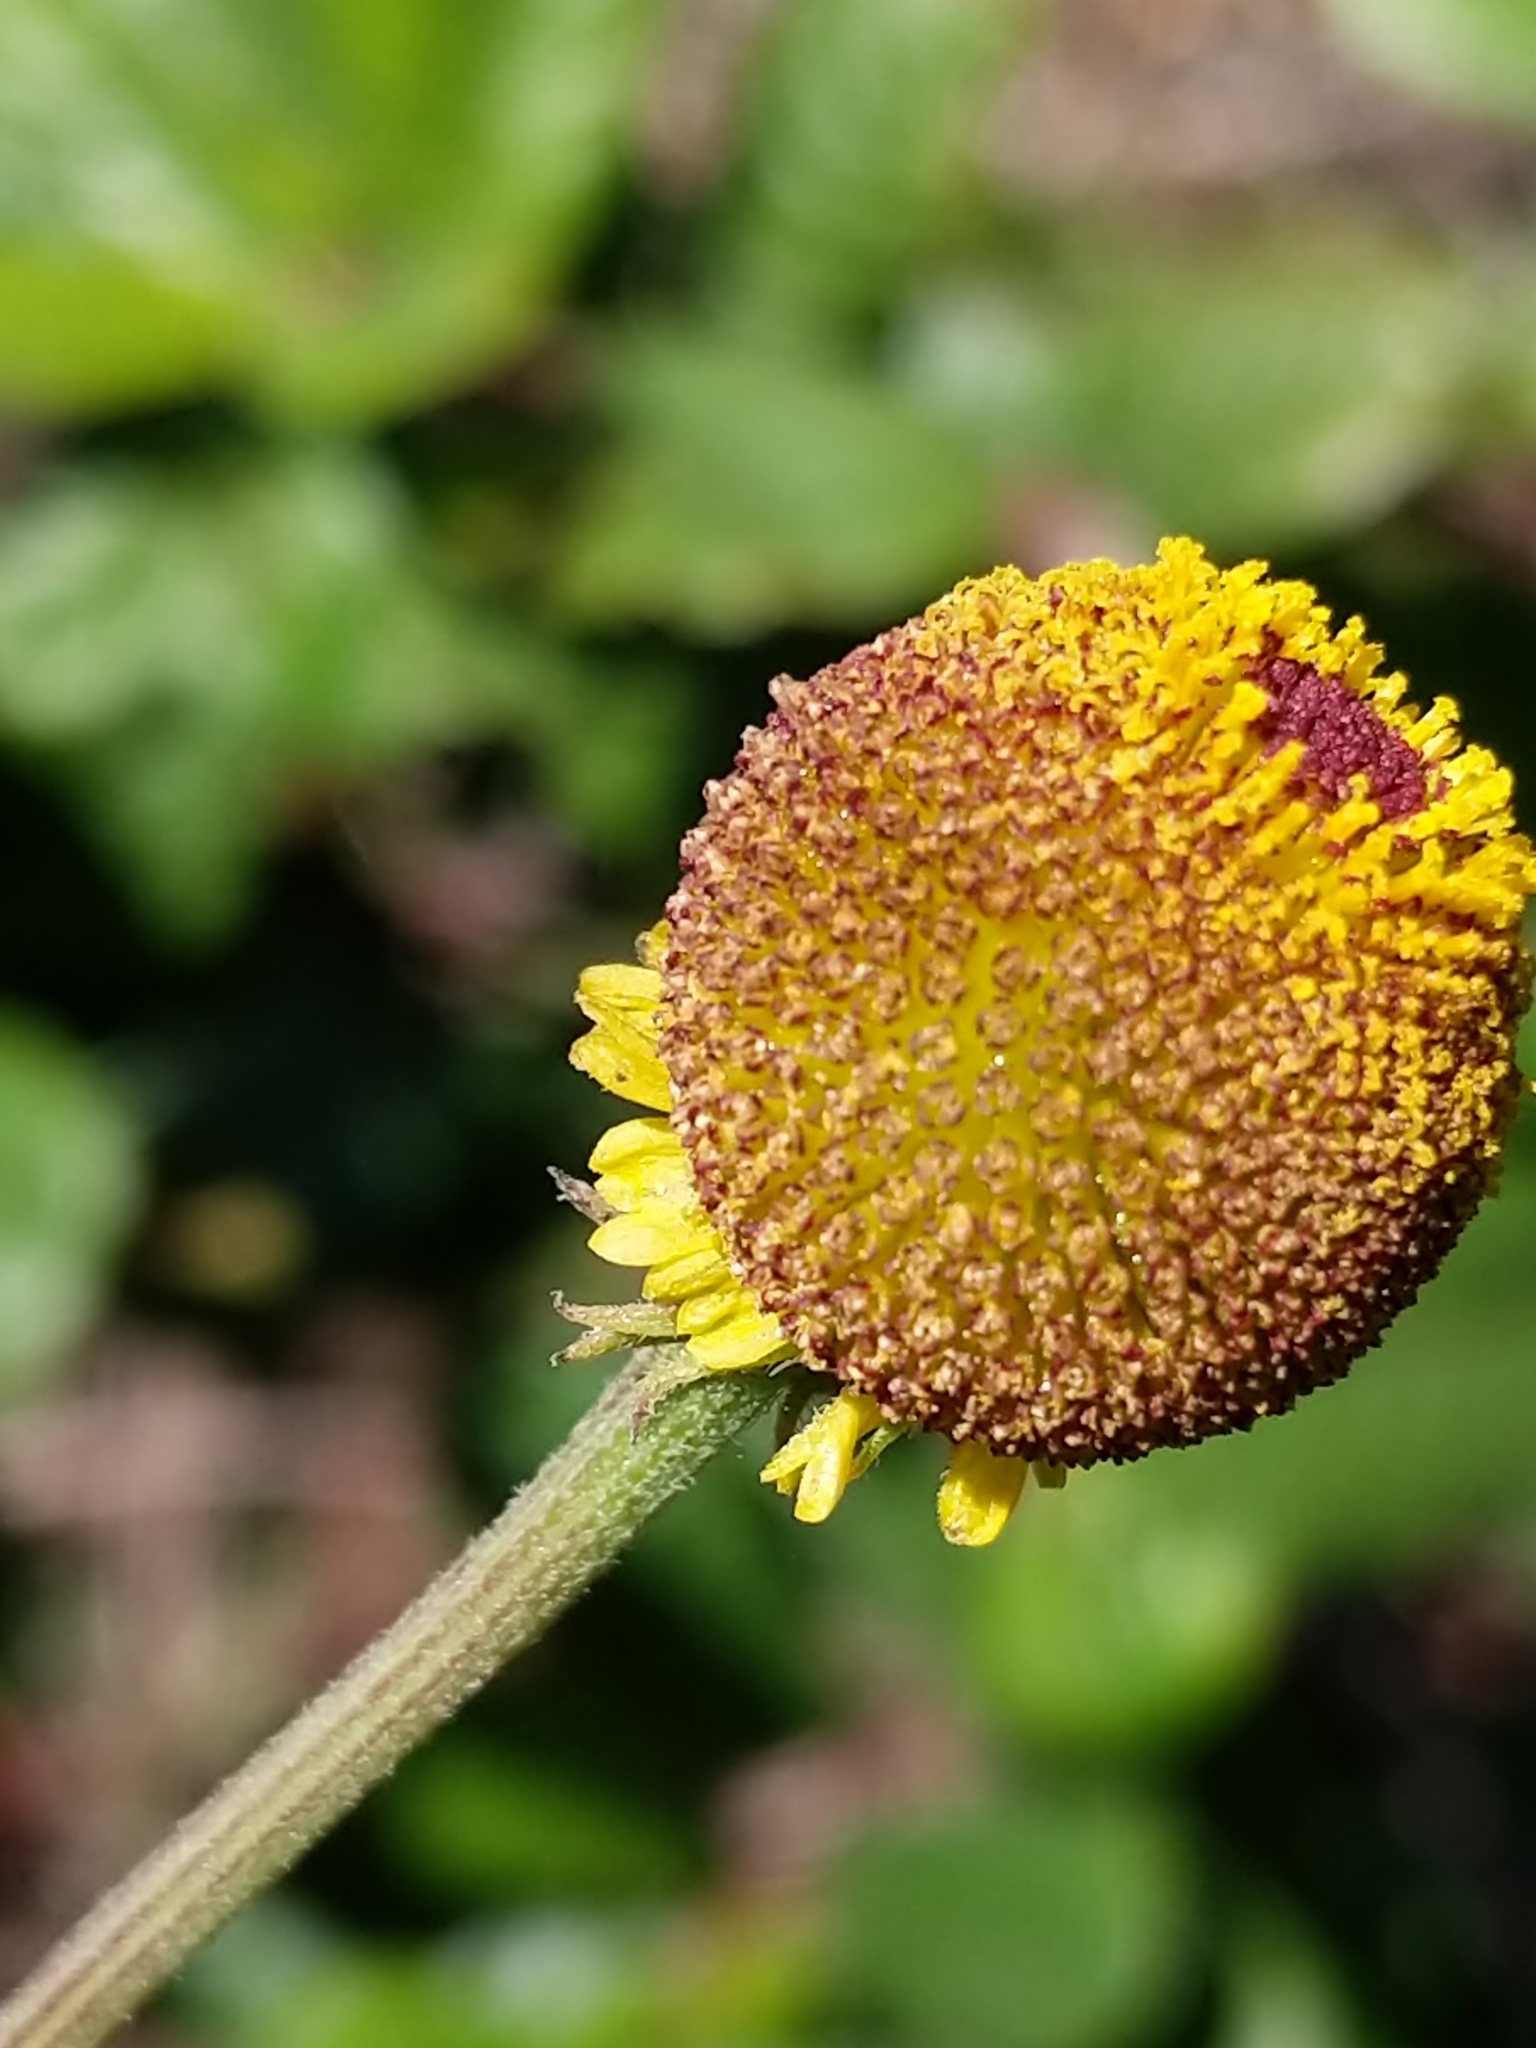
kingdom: Plantae
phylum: Tracheophyta
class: Magnoliopsida
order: Asterales
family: Asteraceae
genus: Helenium
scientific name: Helenium puberulum
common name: Sneezewort
